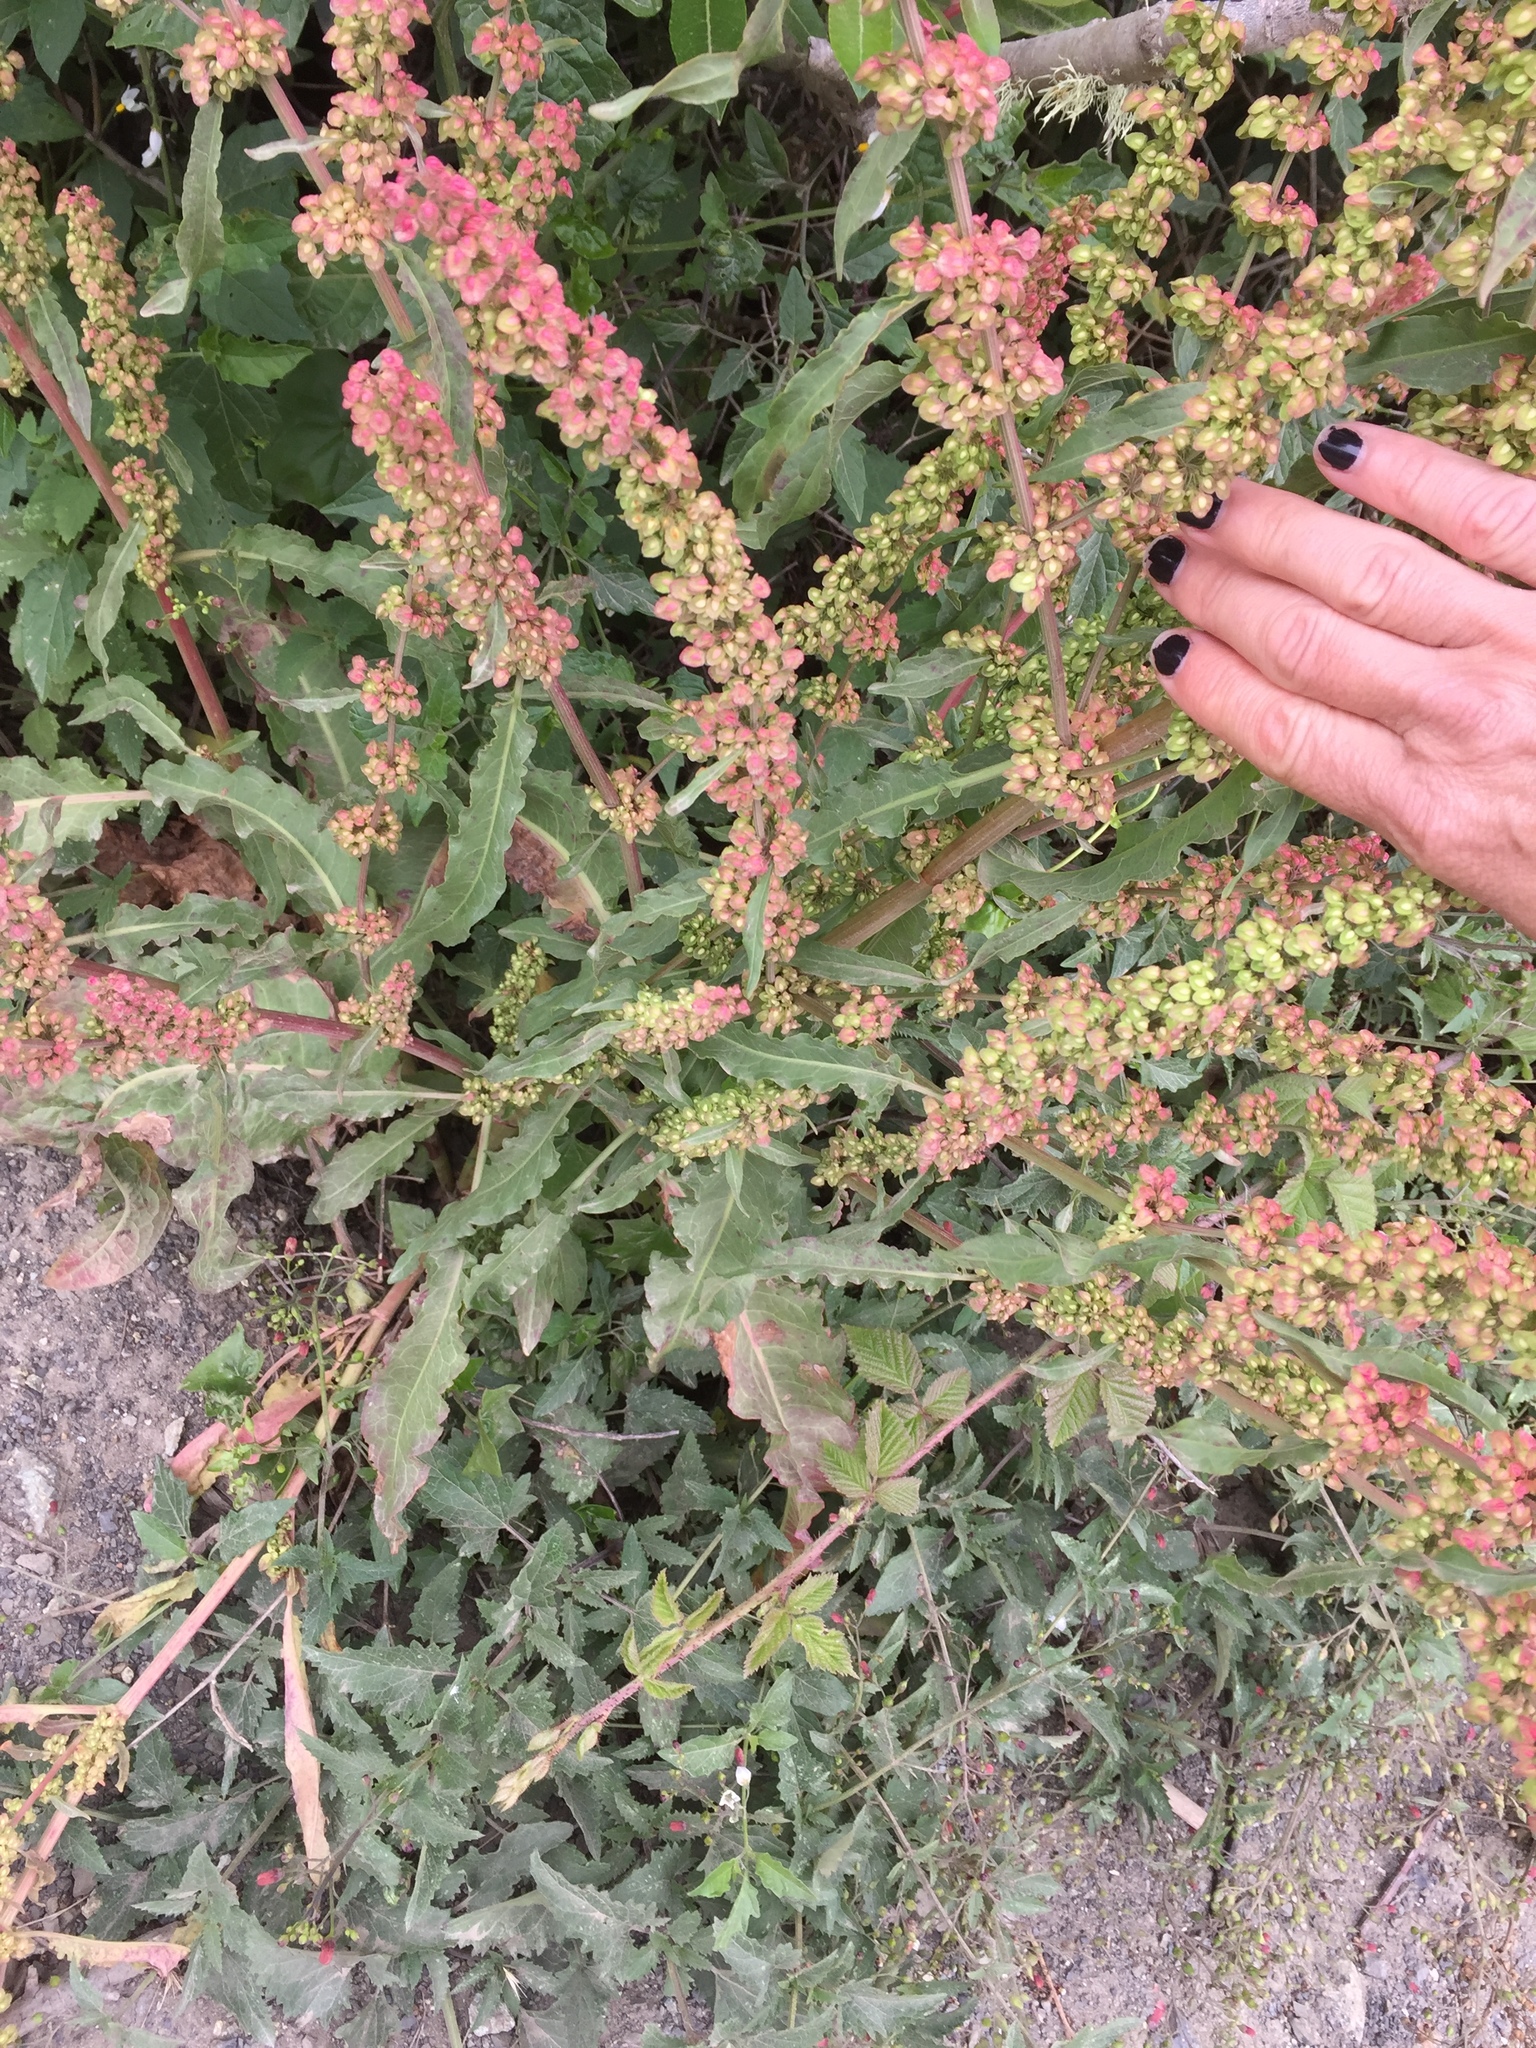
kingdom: Plantae
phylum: Tracheophyta
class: Magnoliopsida
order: Caryophyllales
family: Polygonaceae
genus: Rumex
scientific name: Rumex crispus
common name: Curled dock
